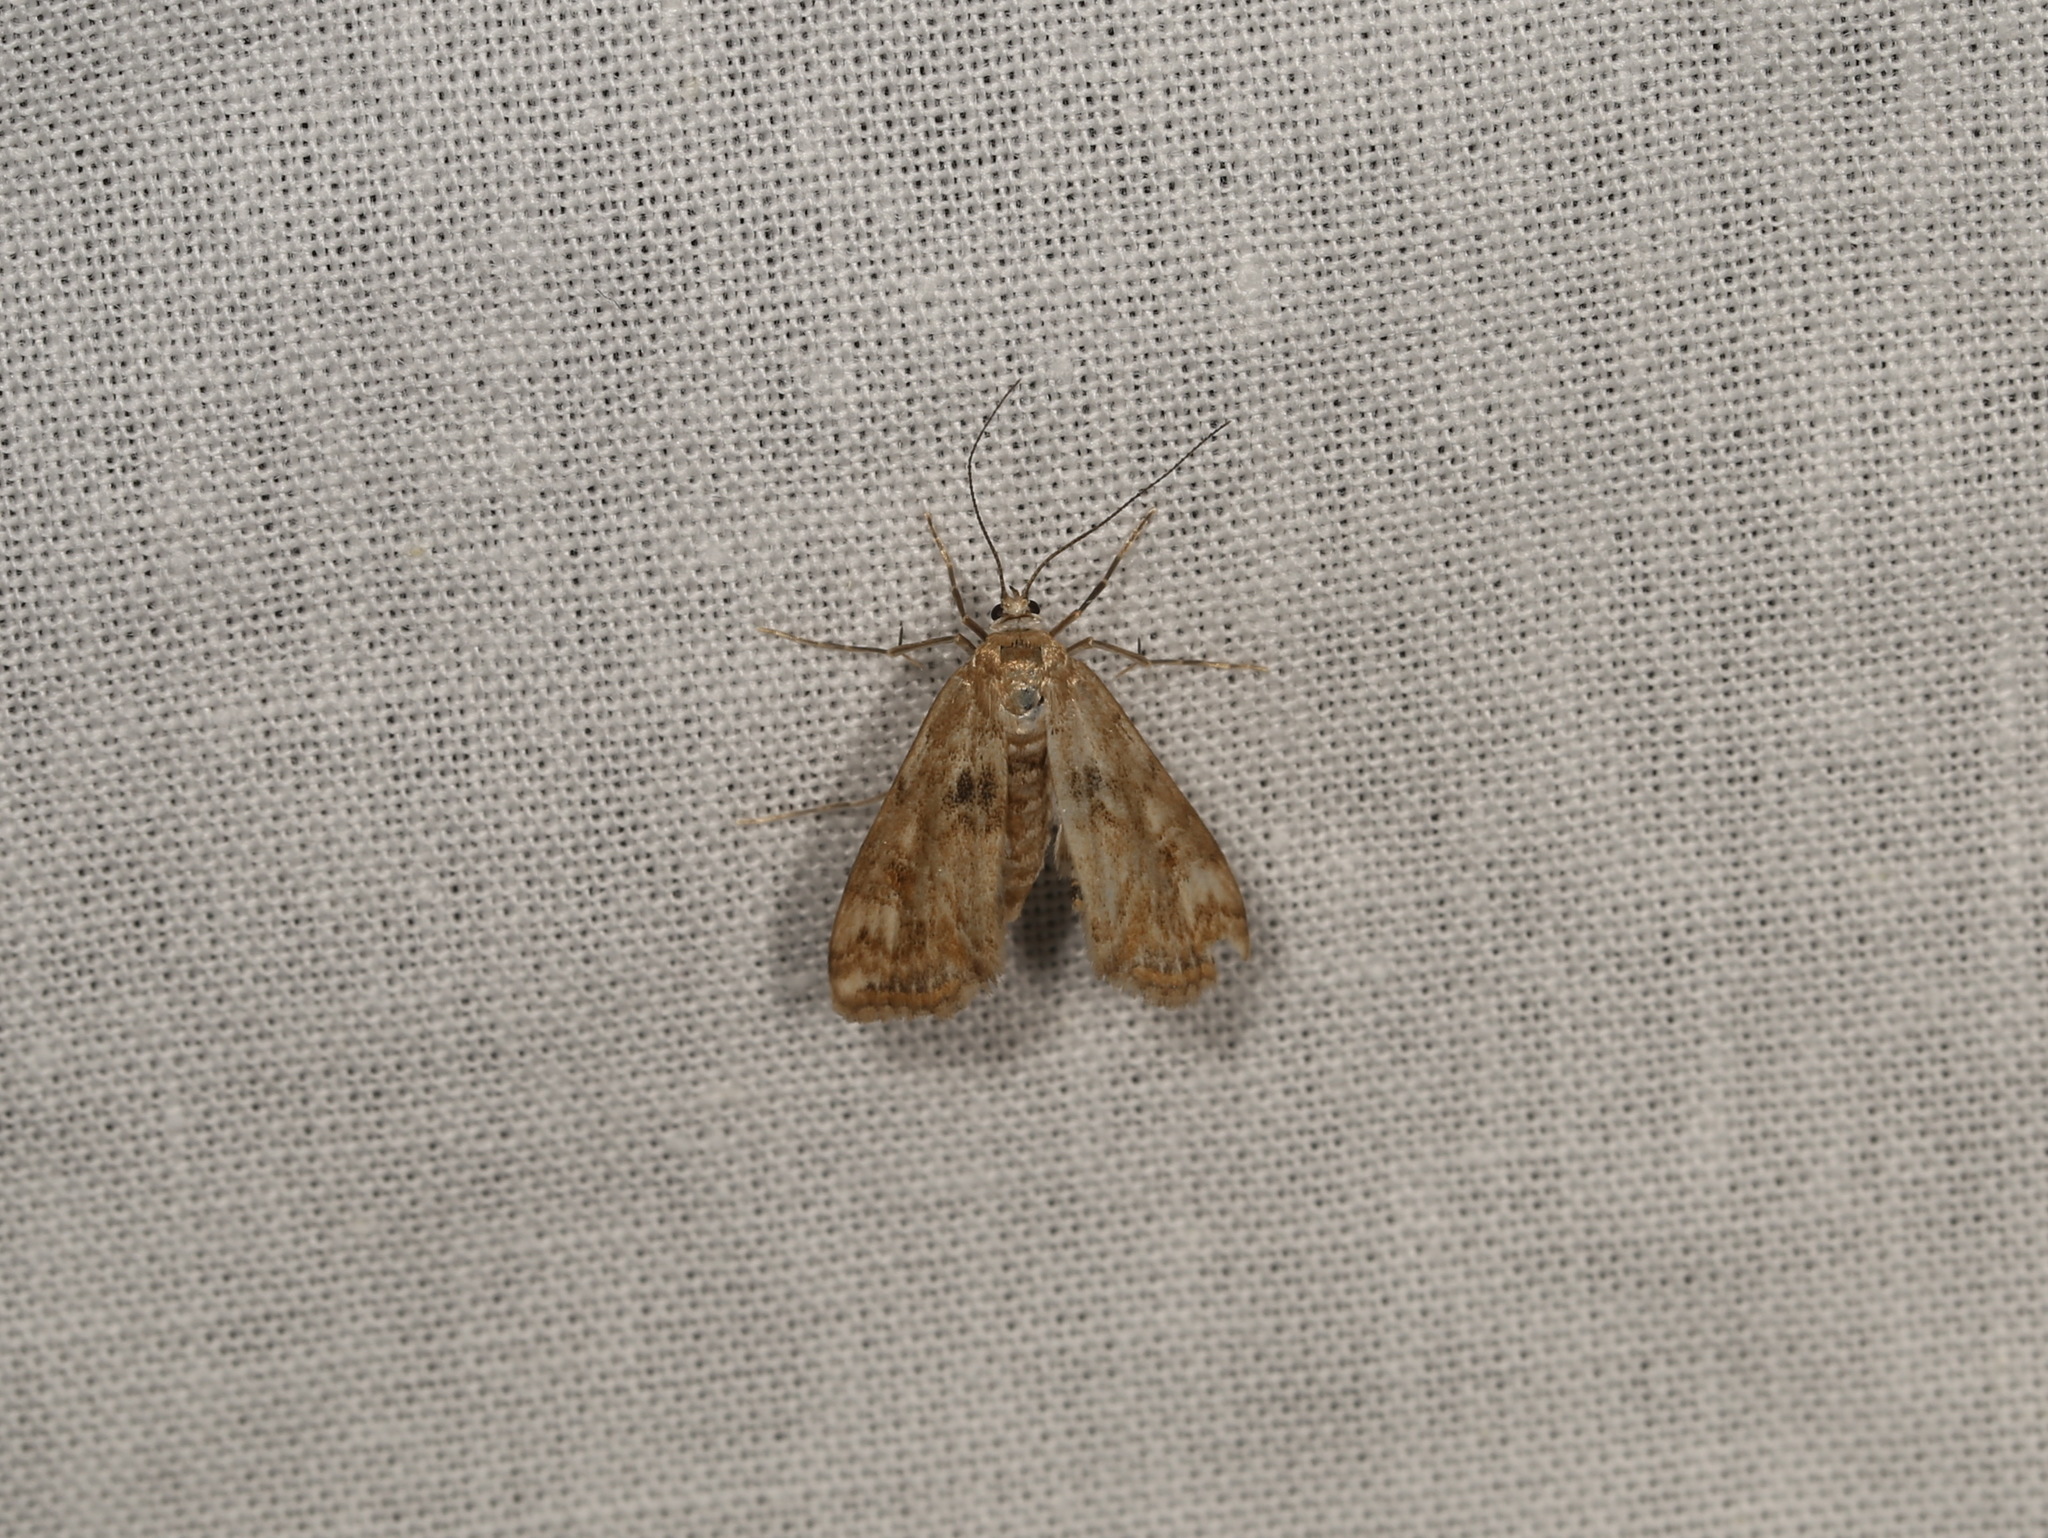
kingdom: Animalia
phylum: Arthropoda
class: Insecta
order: Lepidoptera
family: Crambidae
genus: Cataclysta
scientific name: Cataclysta lemnata
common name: Small china-mark
